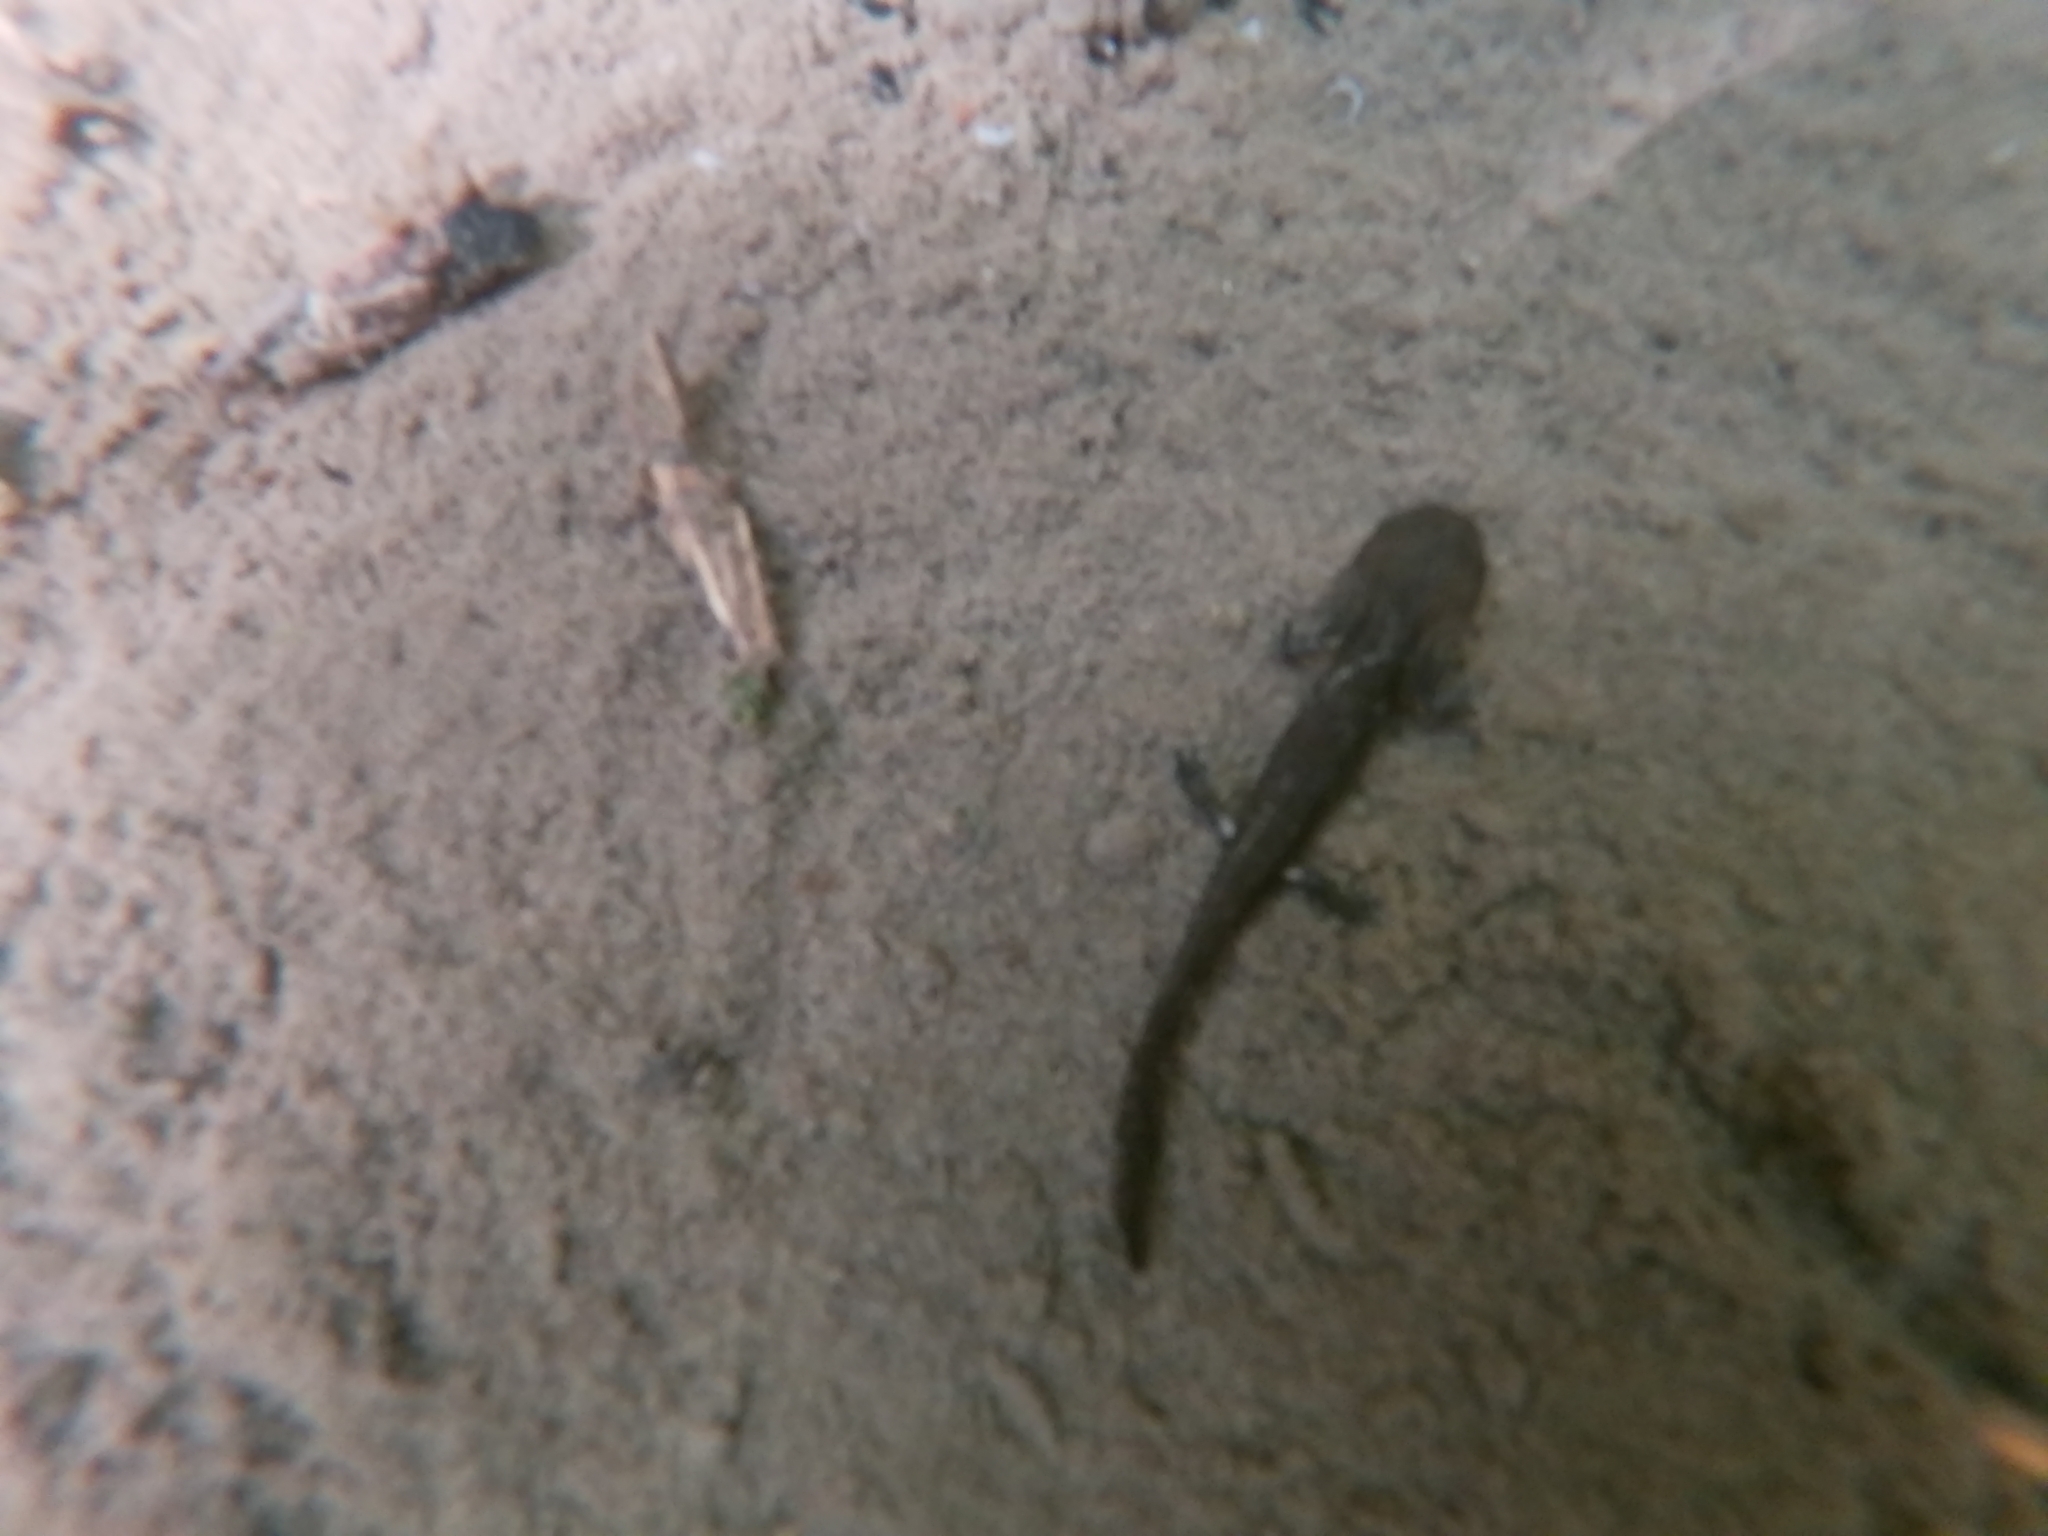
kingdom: Animalia
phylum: Chordata
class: Amphibia
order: Caudata
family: Salamandridae
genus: Salamandra
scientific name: Salamandra salamandra
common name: Fire salamander
